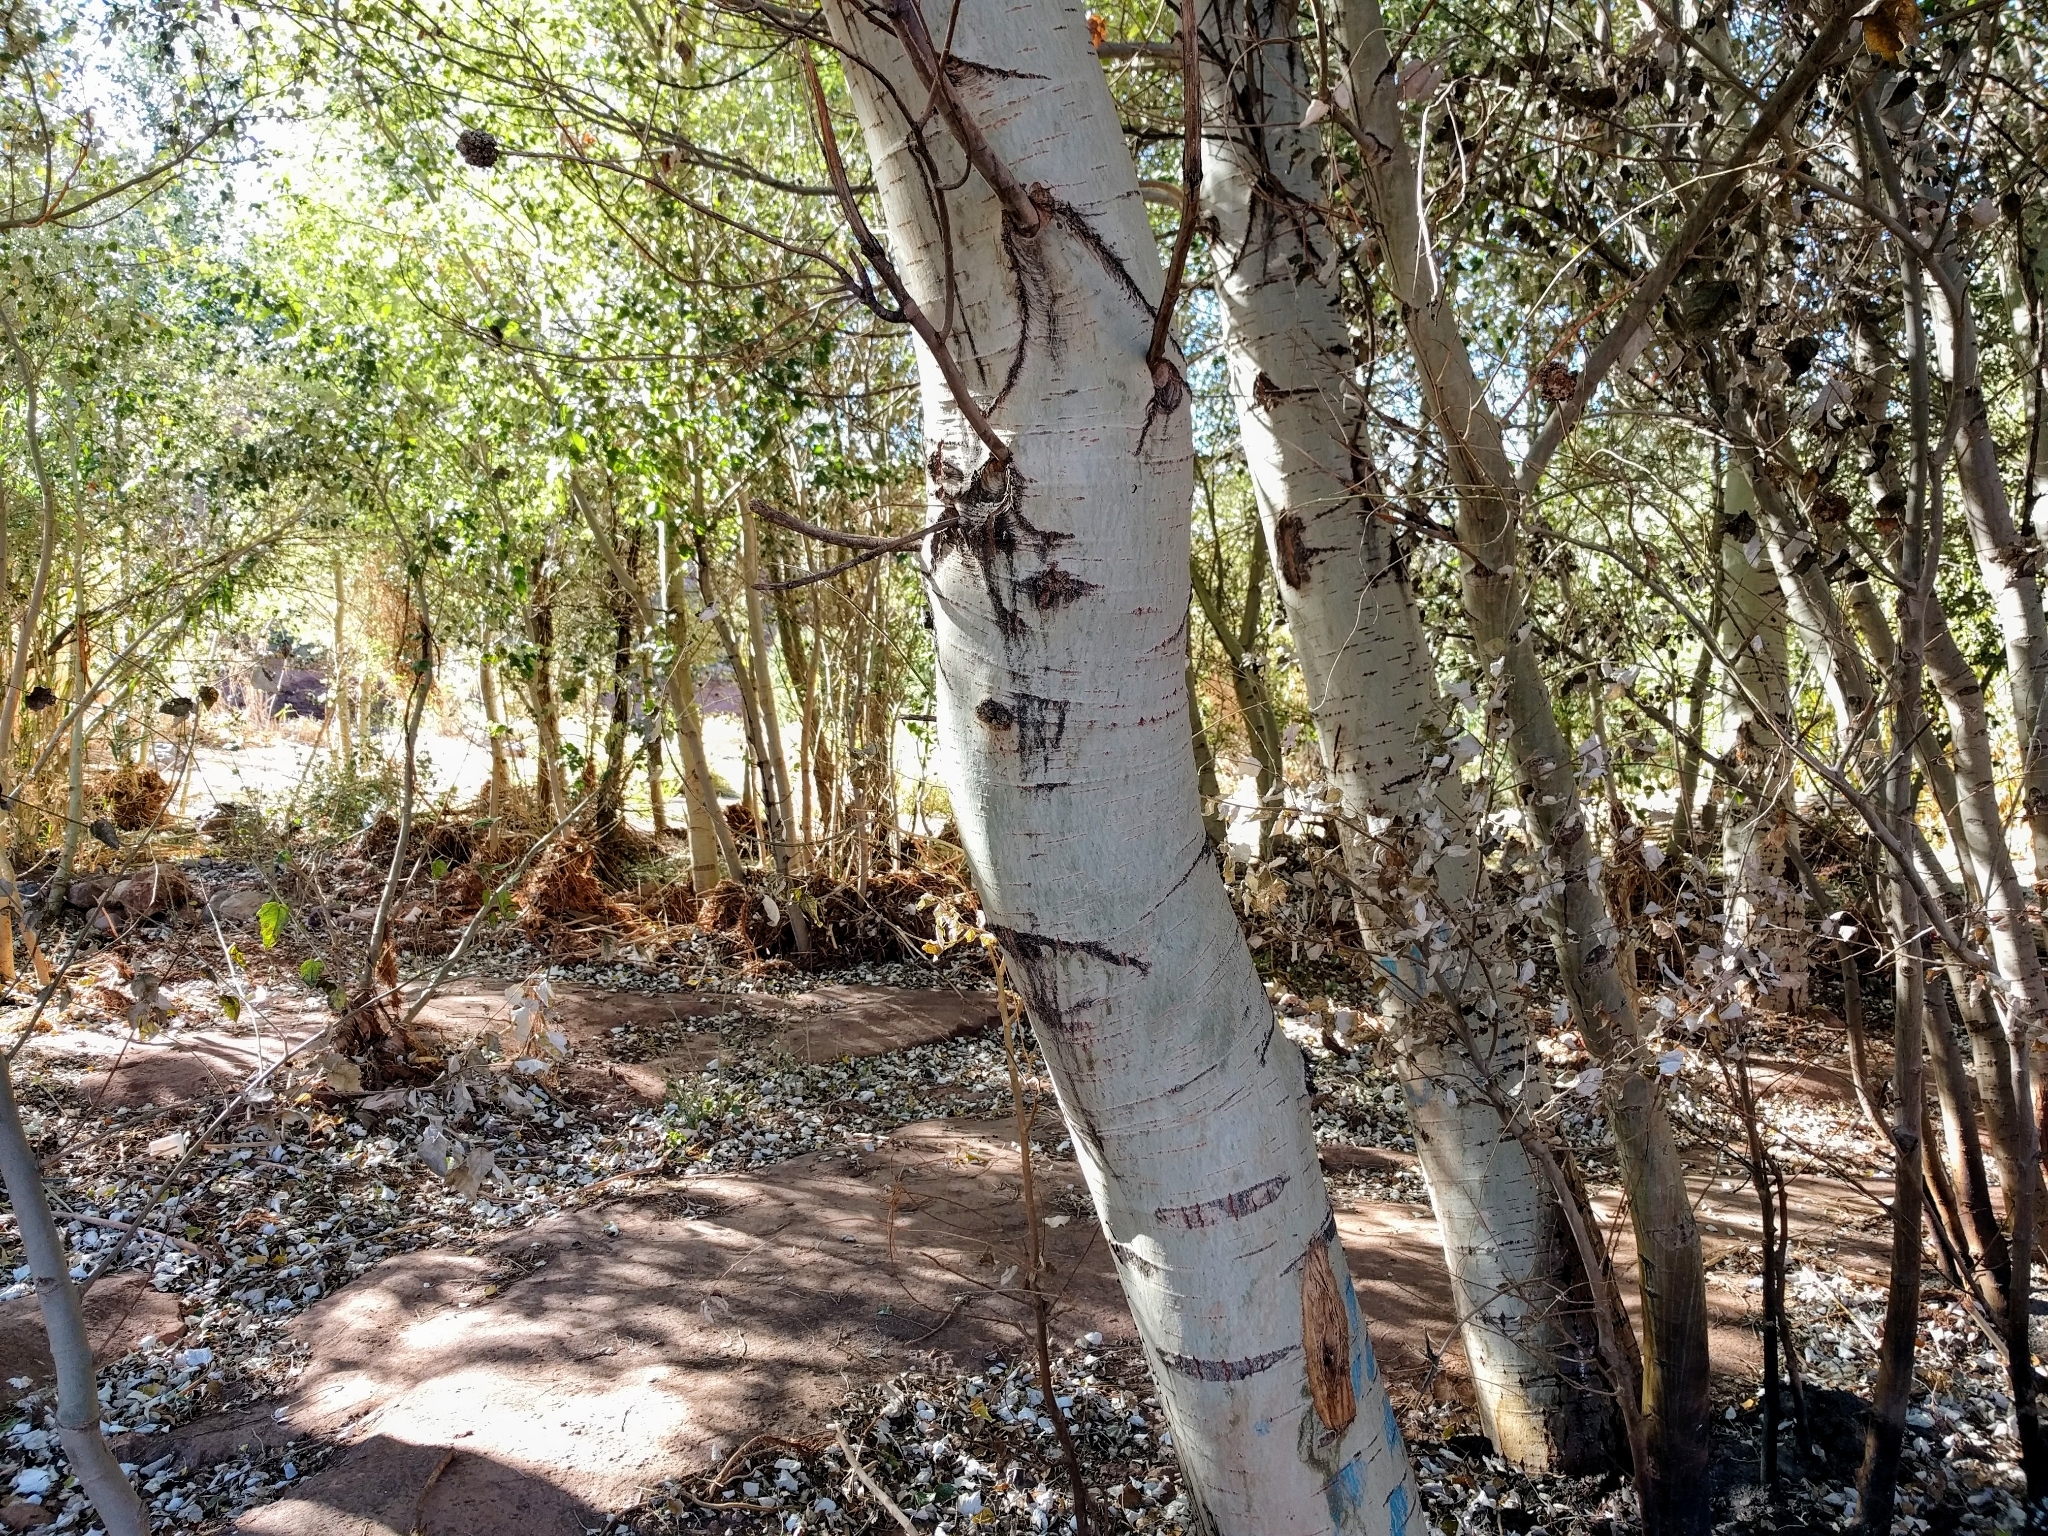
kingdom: Plantae
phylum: Tracheophyta
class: Magnoliopsida
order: Malpighiales
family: Salicaceae
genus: Populus
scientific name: Populus alba
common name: White poplar
